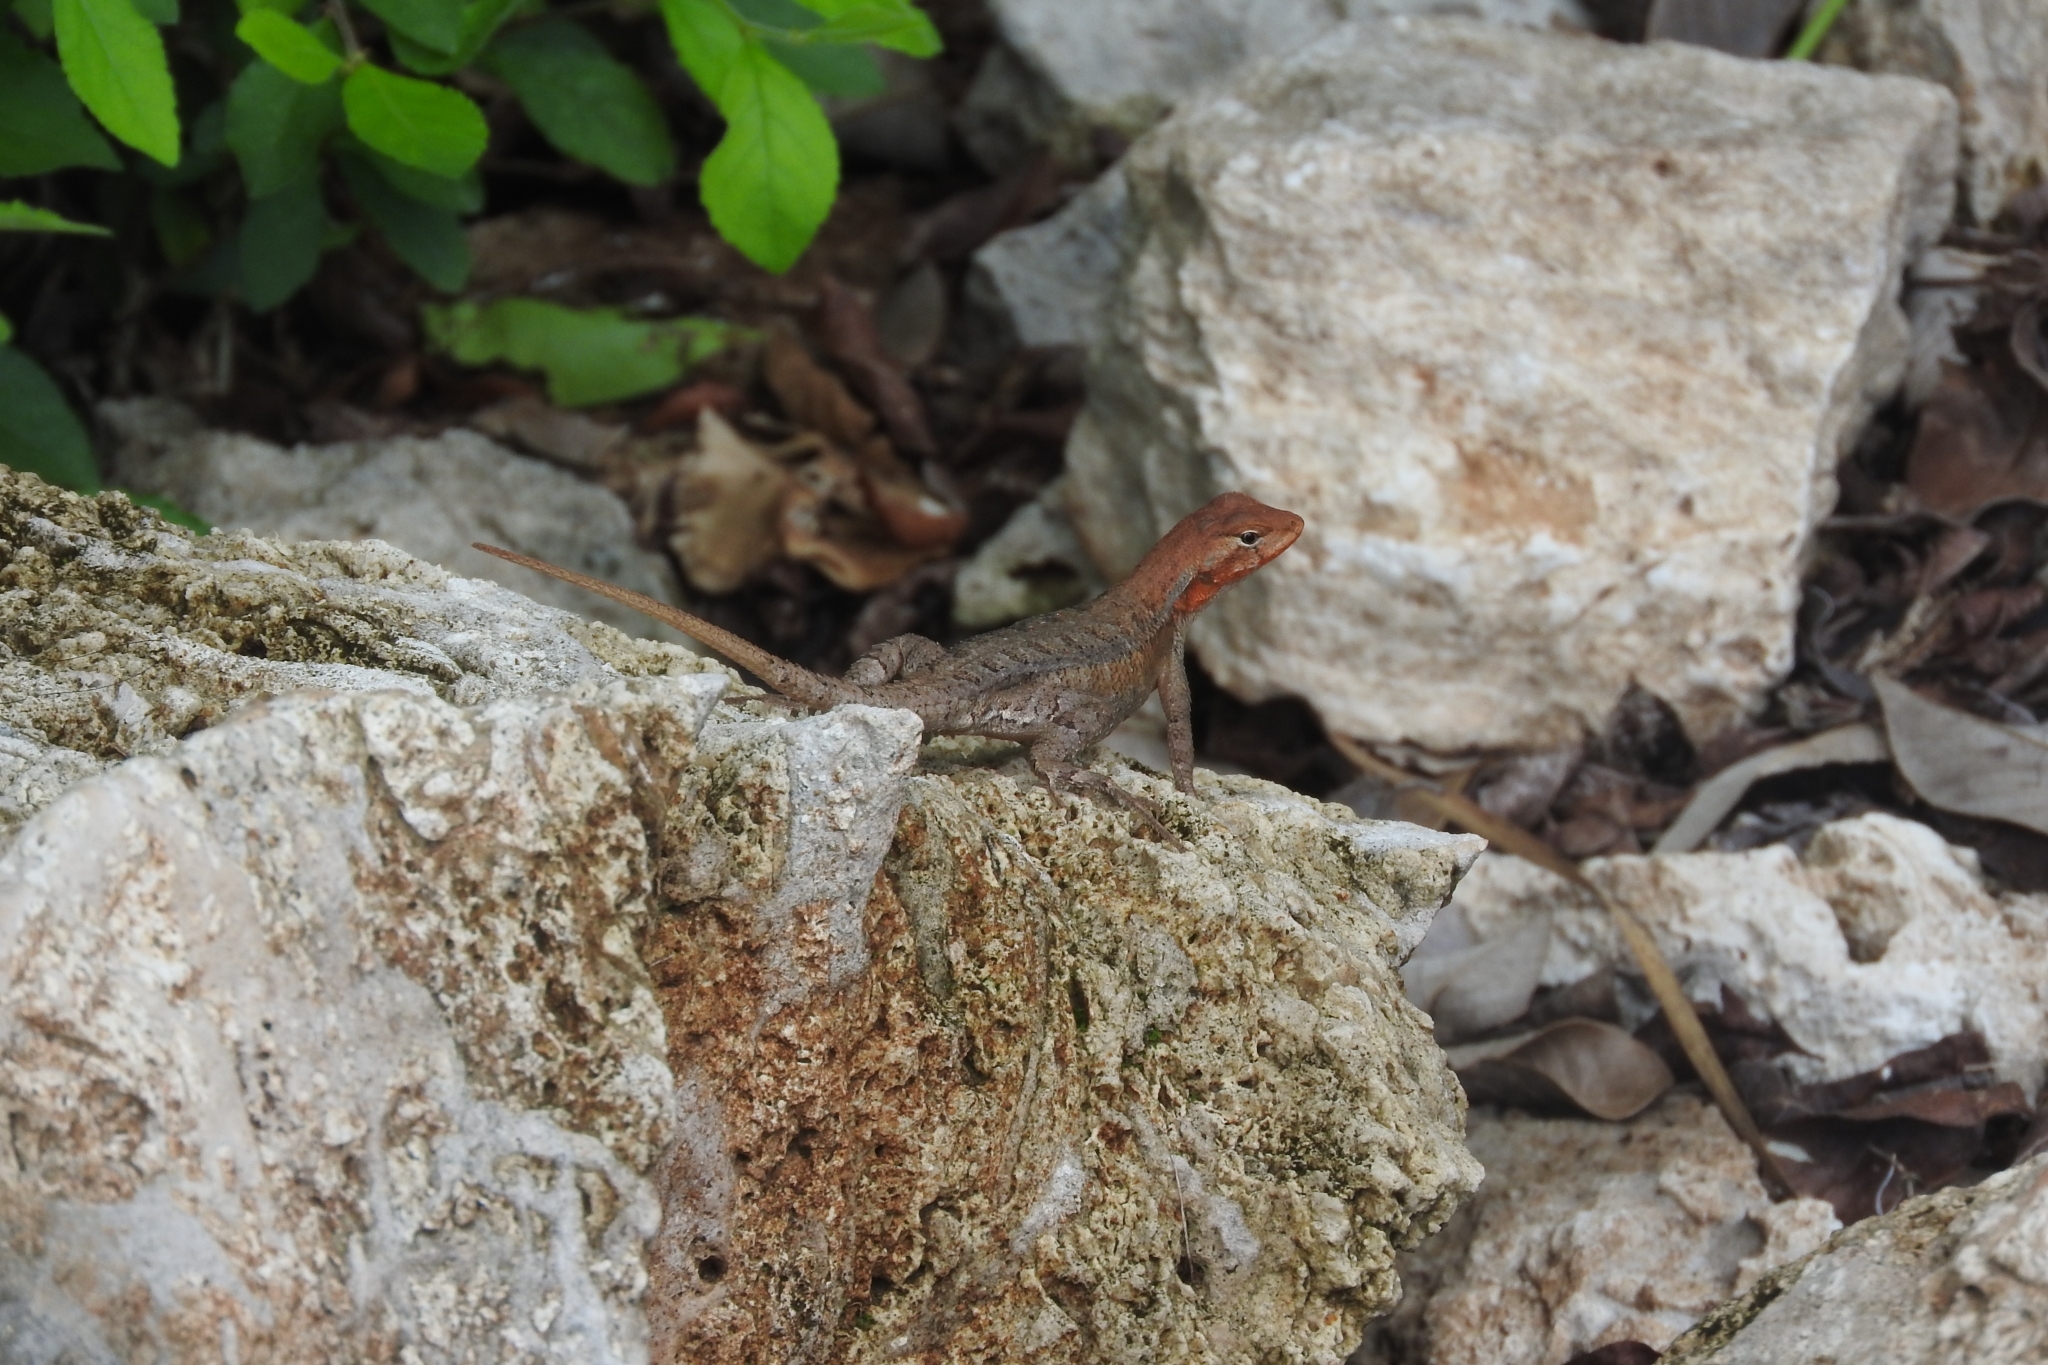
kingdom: Animalia
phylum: Chordata
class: Squamata
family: Phrynosomatidae
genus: Sceloporus
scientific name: Sceloporus chrysostictus
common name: Yellow-spotted spiny lizard
